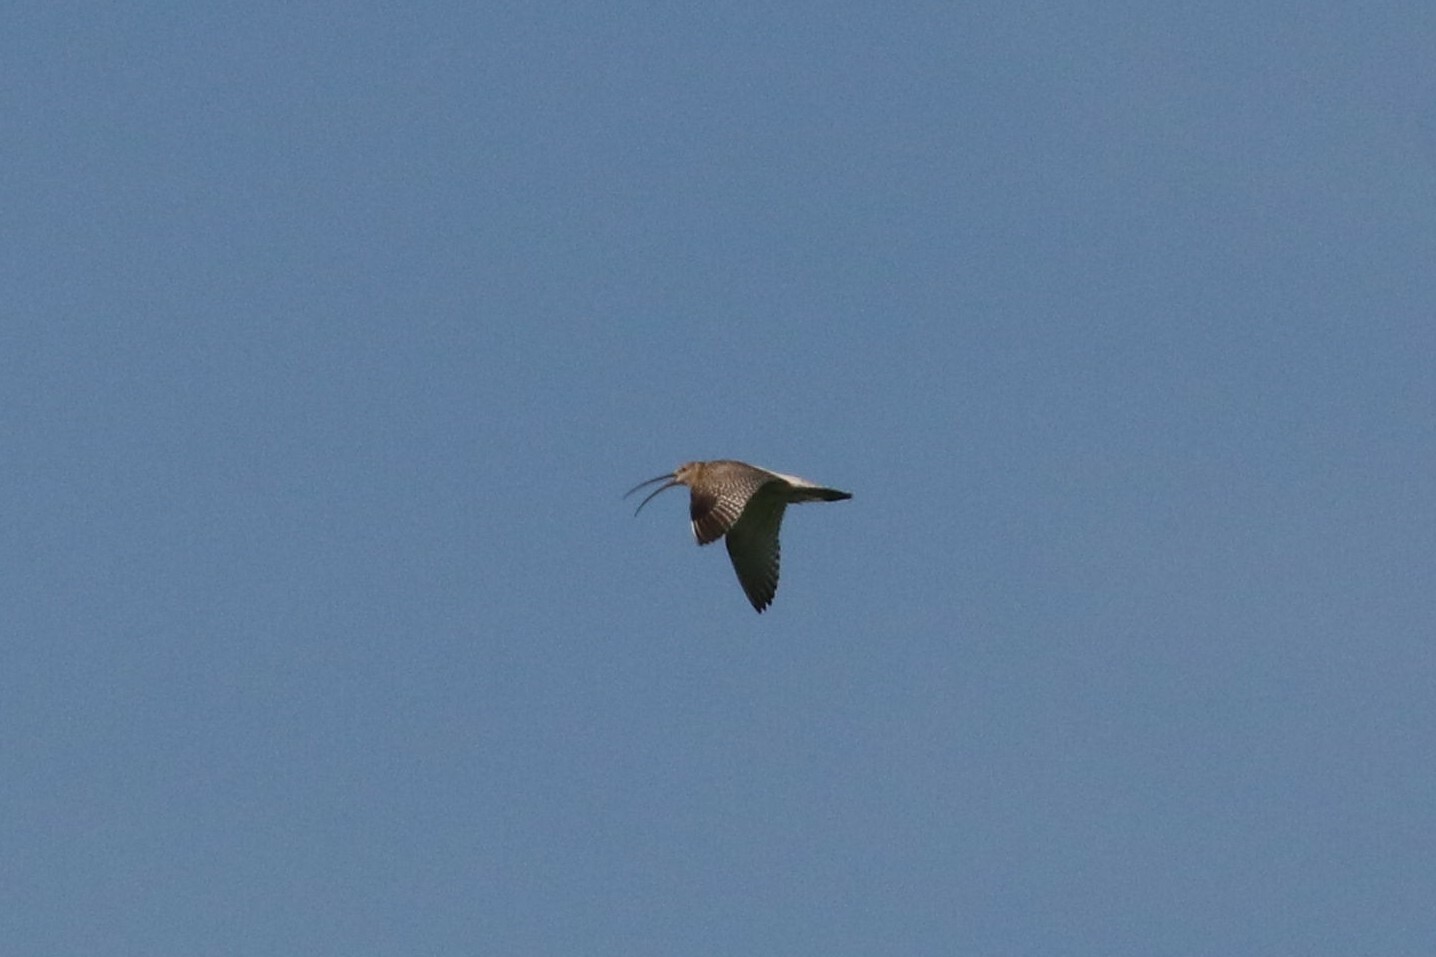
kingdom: Animalia
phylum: Chordata
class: Aves
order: Charadriiformes
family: Scolopacidae
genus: Numenius
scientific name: Numenius arquata
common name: Eurasian curlew
